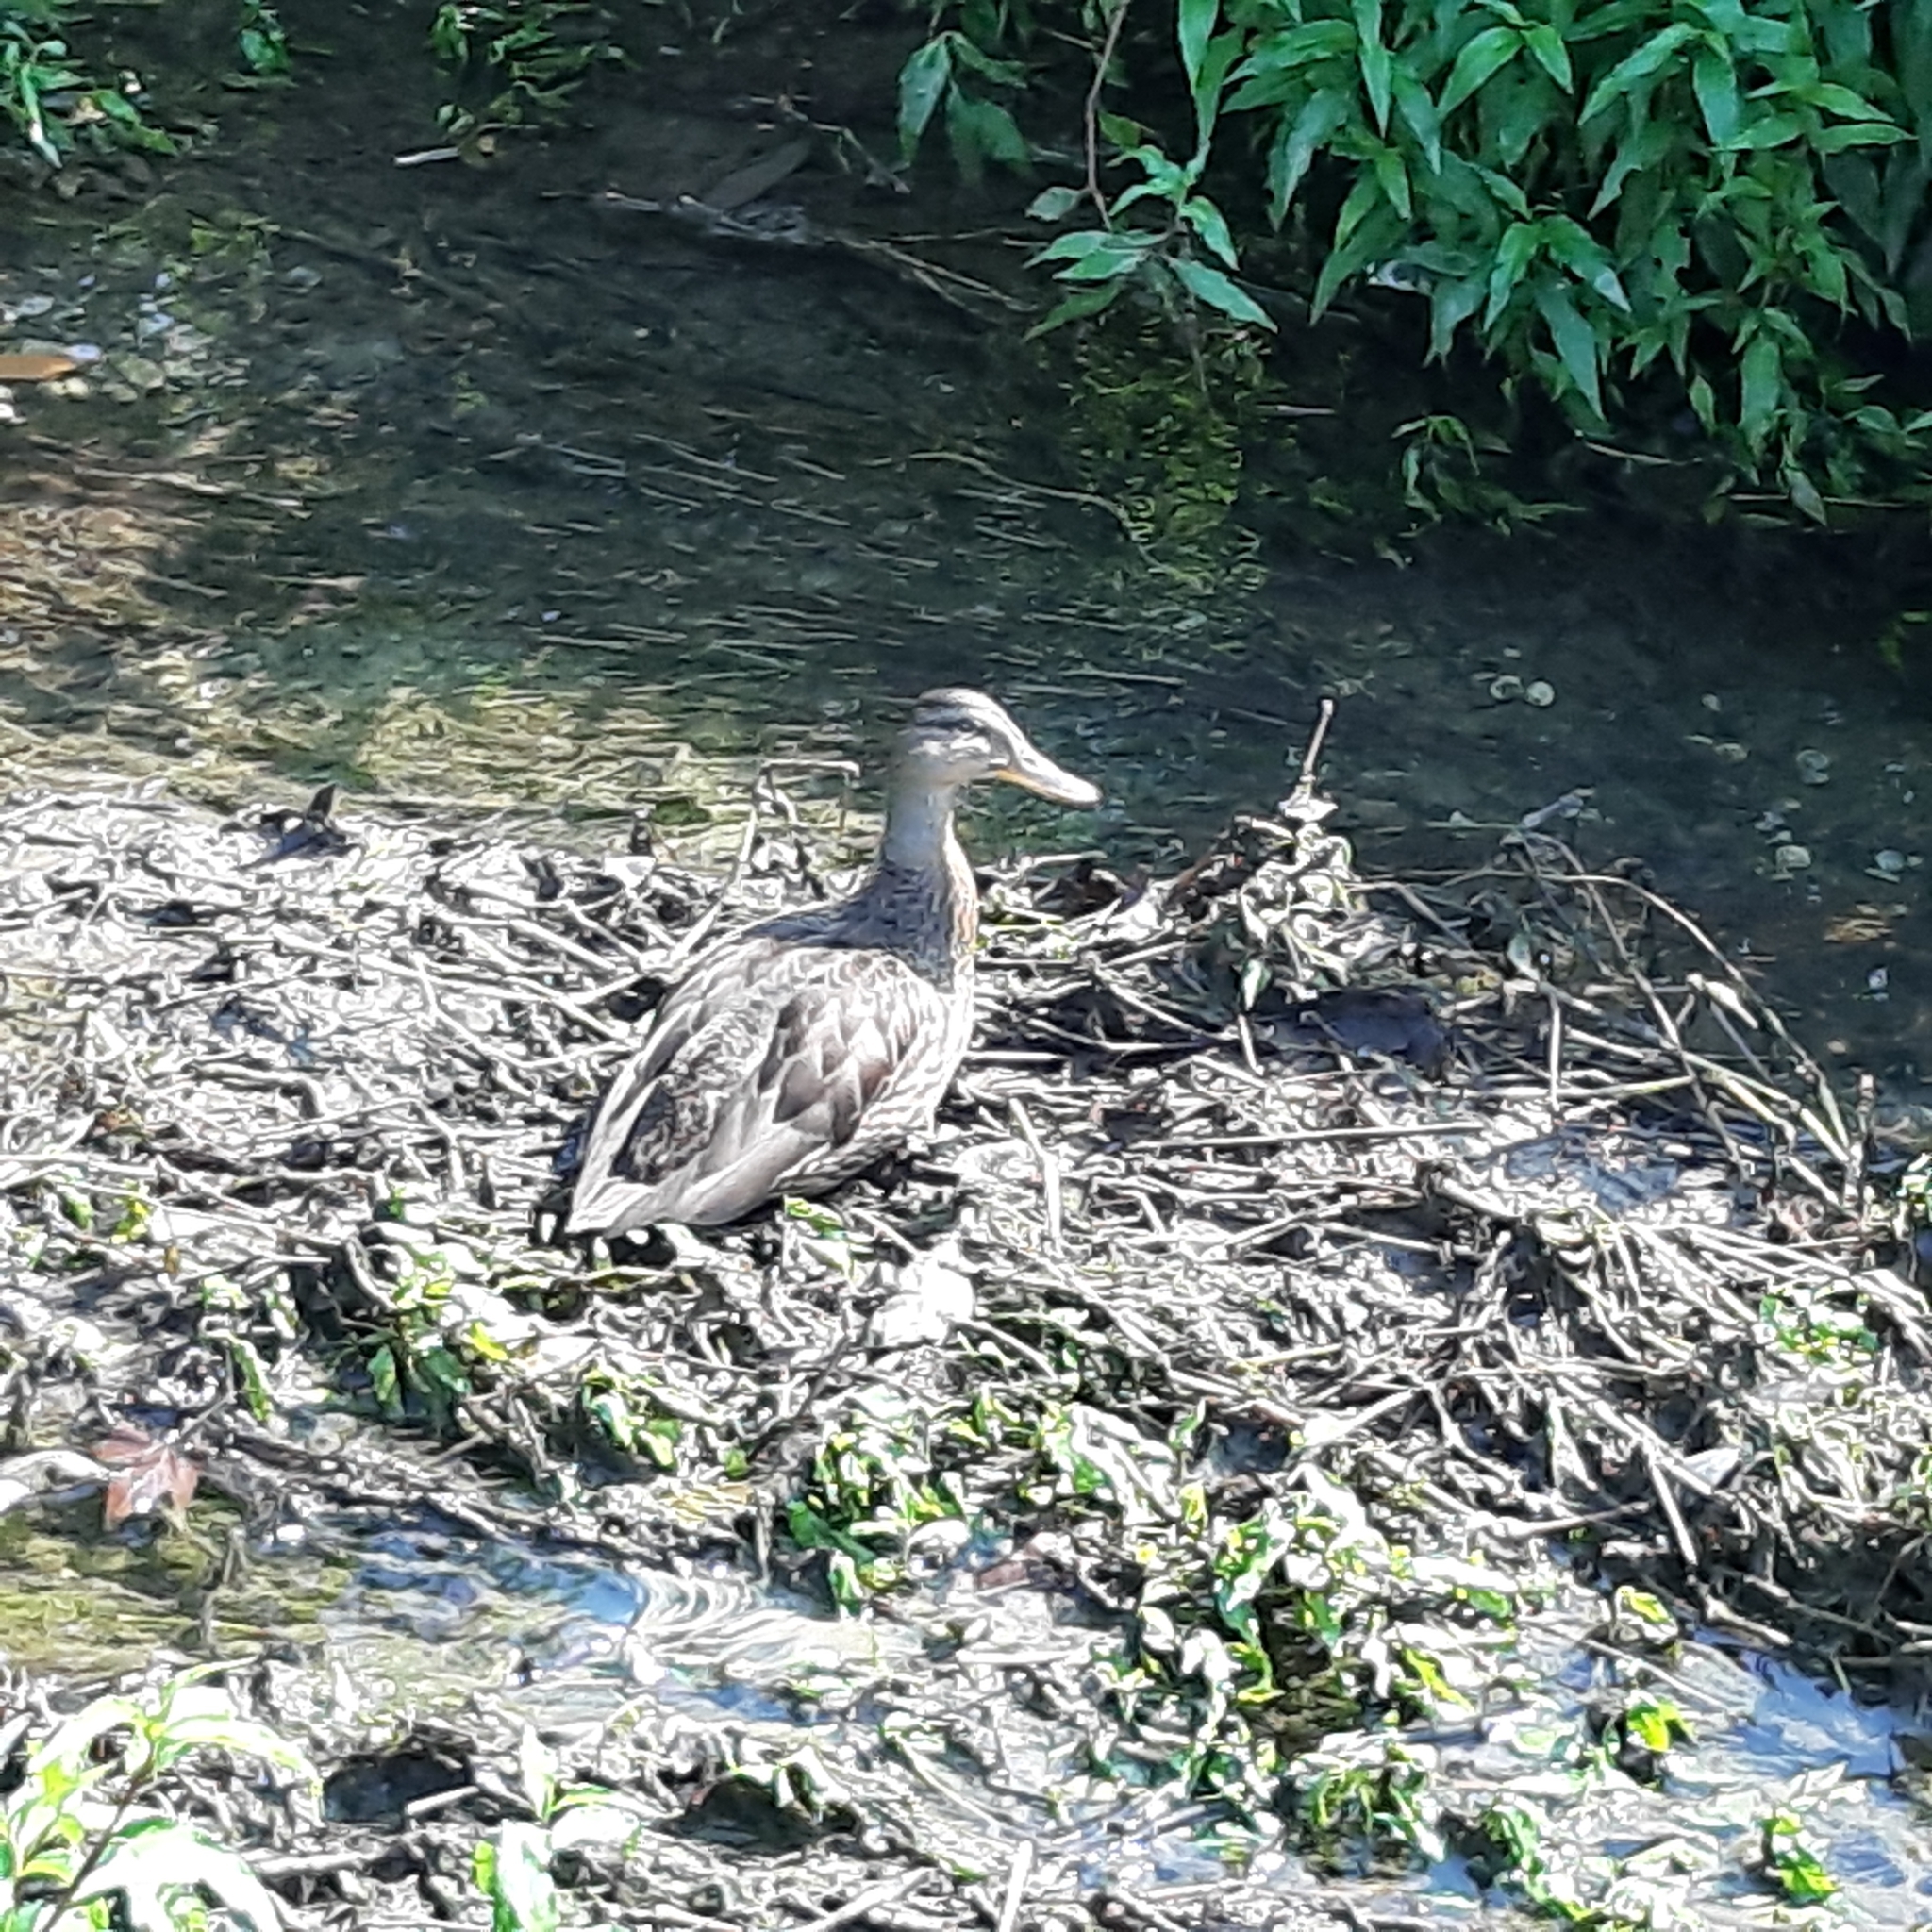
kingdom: Animalia
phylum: Chordata
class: Aves
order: Anseriformes
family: Anatidae
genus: Anas
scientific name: Anas platyrhynchos
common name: Mallard
